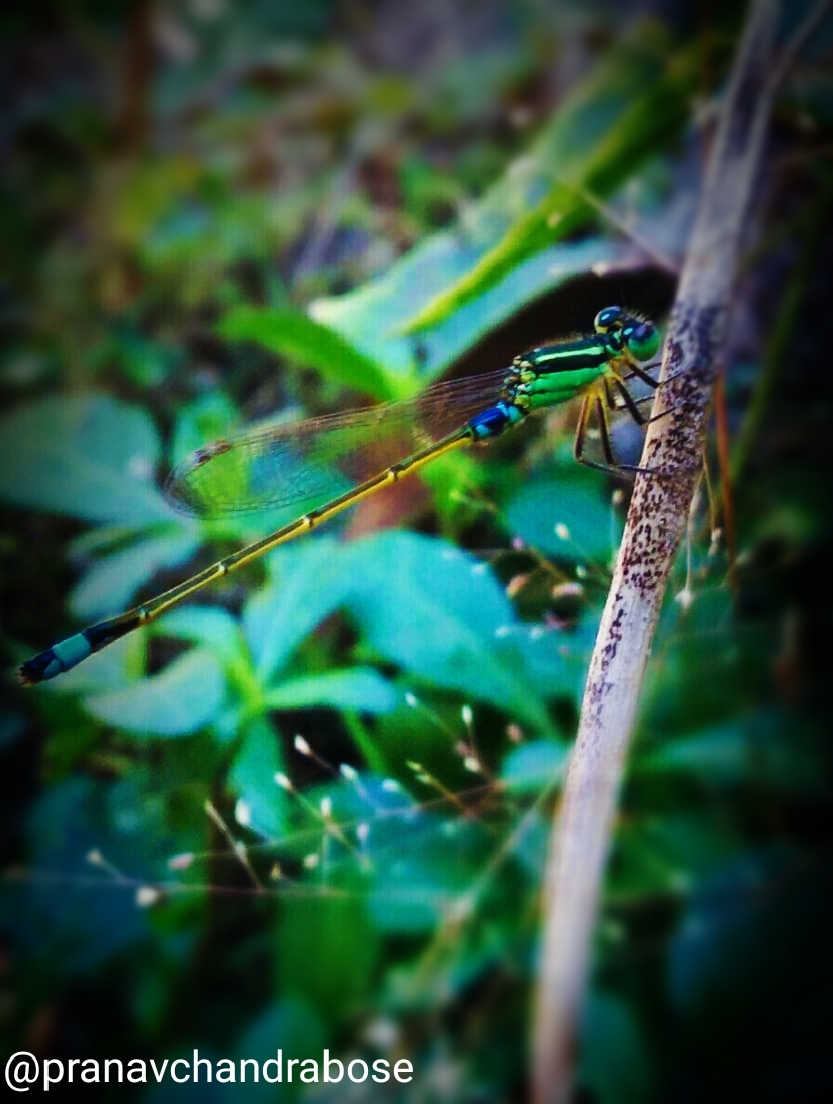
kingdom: Animalia
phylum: Arthropoda
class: Insecta
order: Odonata
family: Coenagrionidae
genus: Ischnura
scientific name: Ischnura senegalensis
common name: Tropical bluetail
